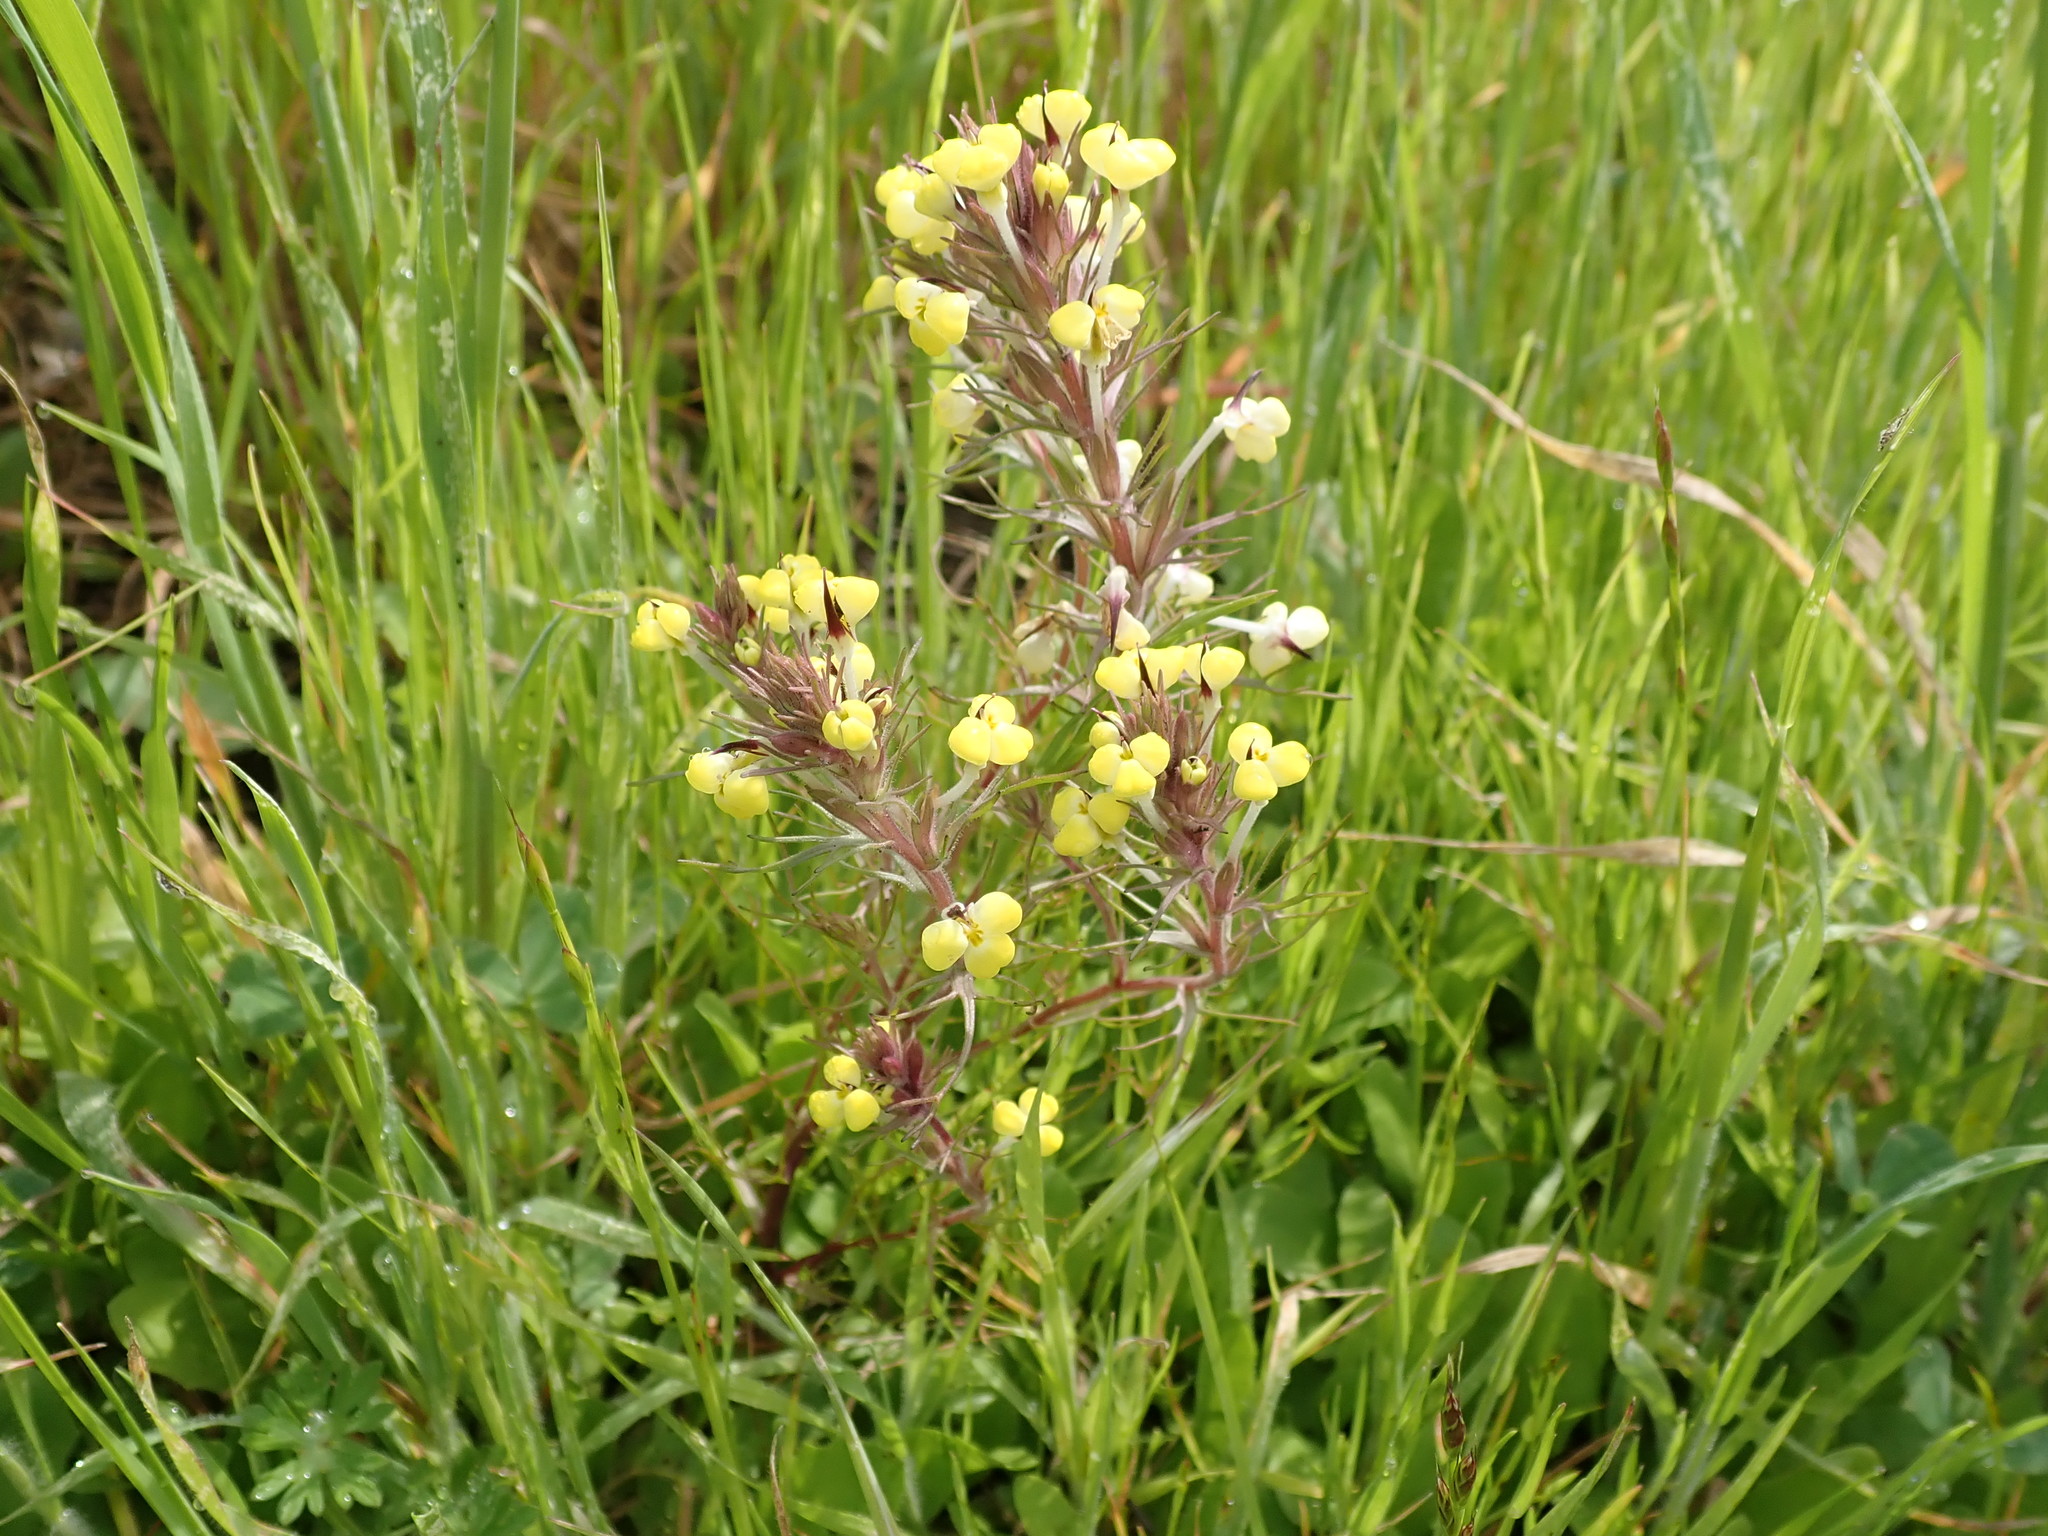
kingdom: Plantae
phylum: Tracheophyta
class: Magnoliopsida
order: Lamiales
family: Orobanchaceae
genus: Triphysaria
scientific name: Triphysaria eriantha
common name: Johnny-tuck
